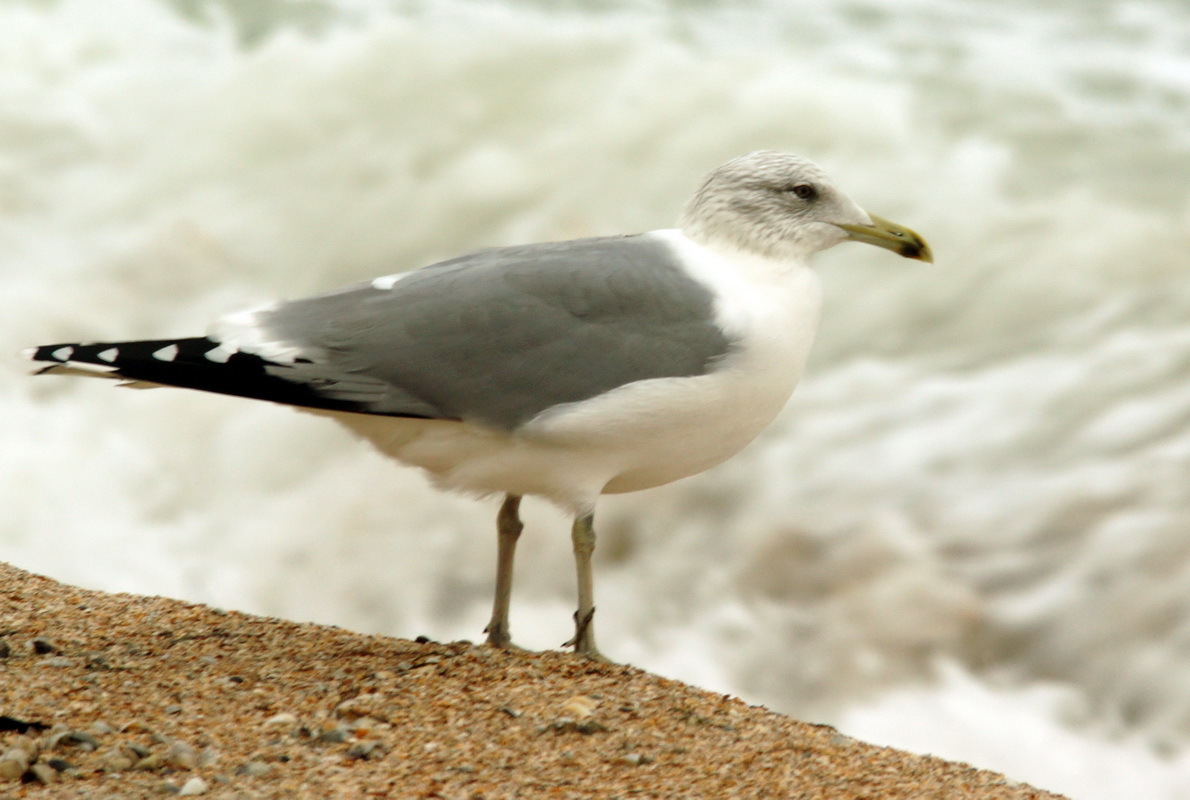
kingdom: Animalia
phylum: Chordata
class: Aves
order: Charadriiformes
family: Laridae
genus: Larus
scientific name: Larus michahellis
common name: Yellow-legged gull
